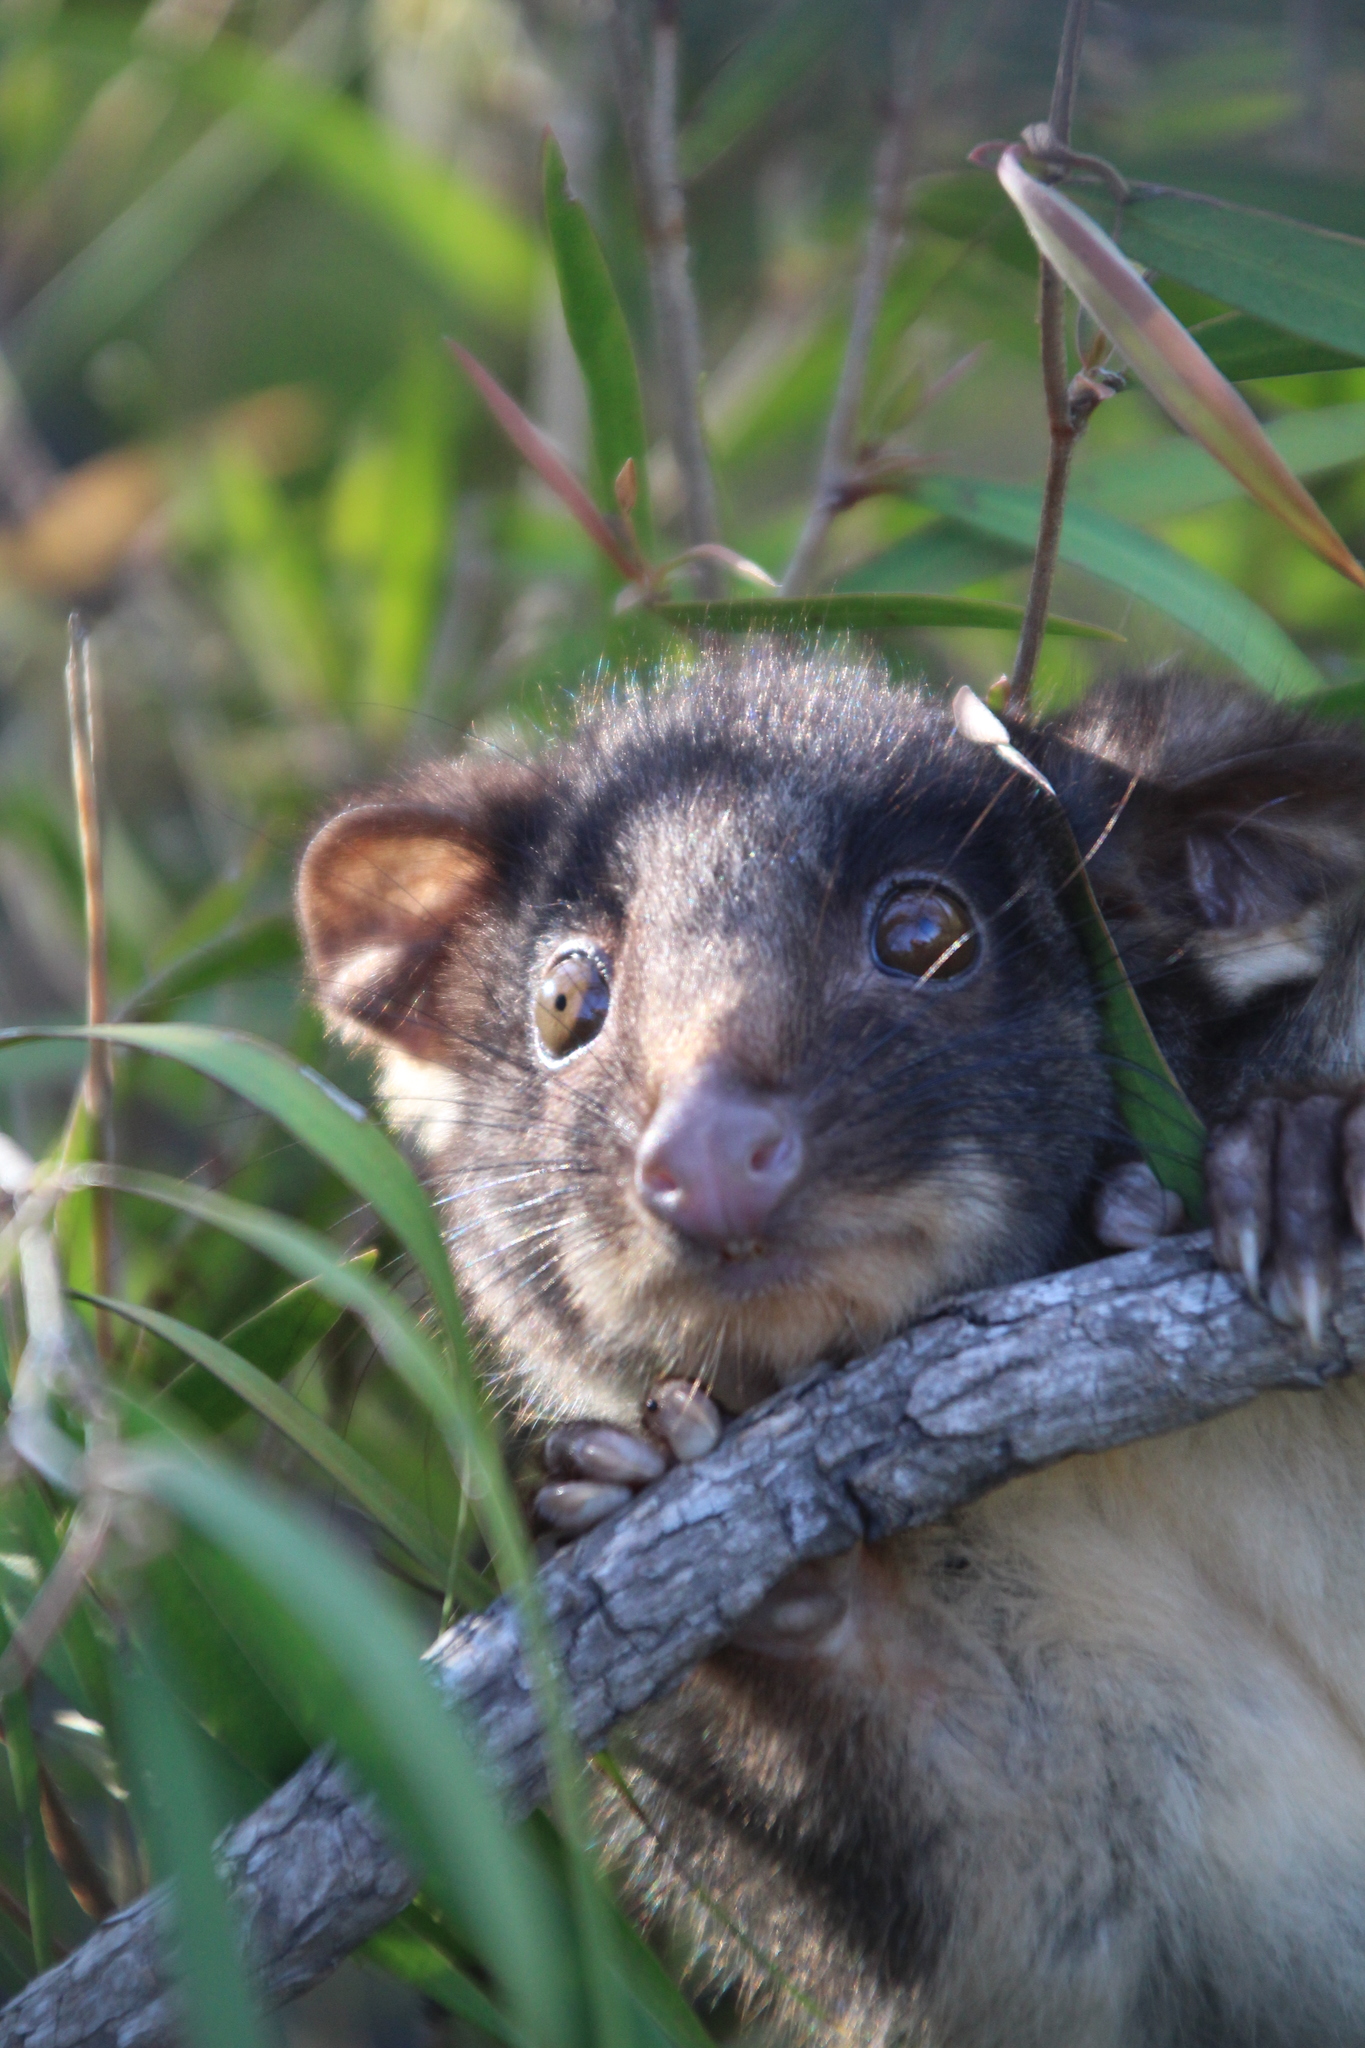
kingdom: Animalia
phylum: Chordata
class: Mammalia
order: Diprotodontia
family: Pseudocheiridae
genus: Pseudocheirus
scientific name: Pseudocheirus peregrinus
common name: Common ringtail possum
